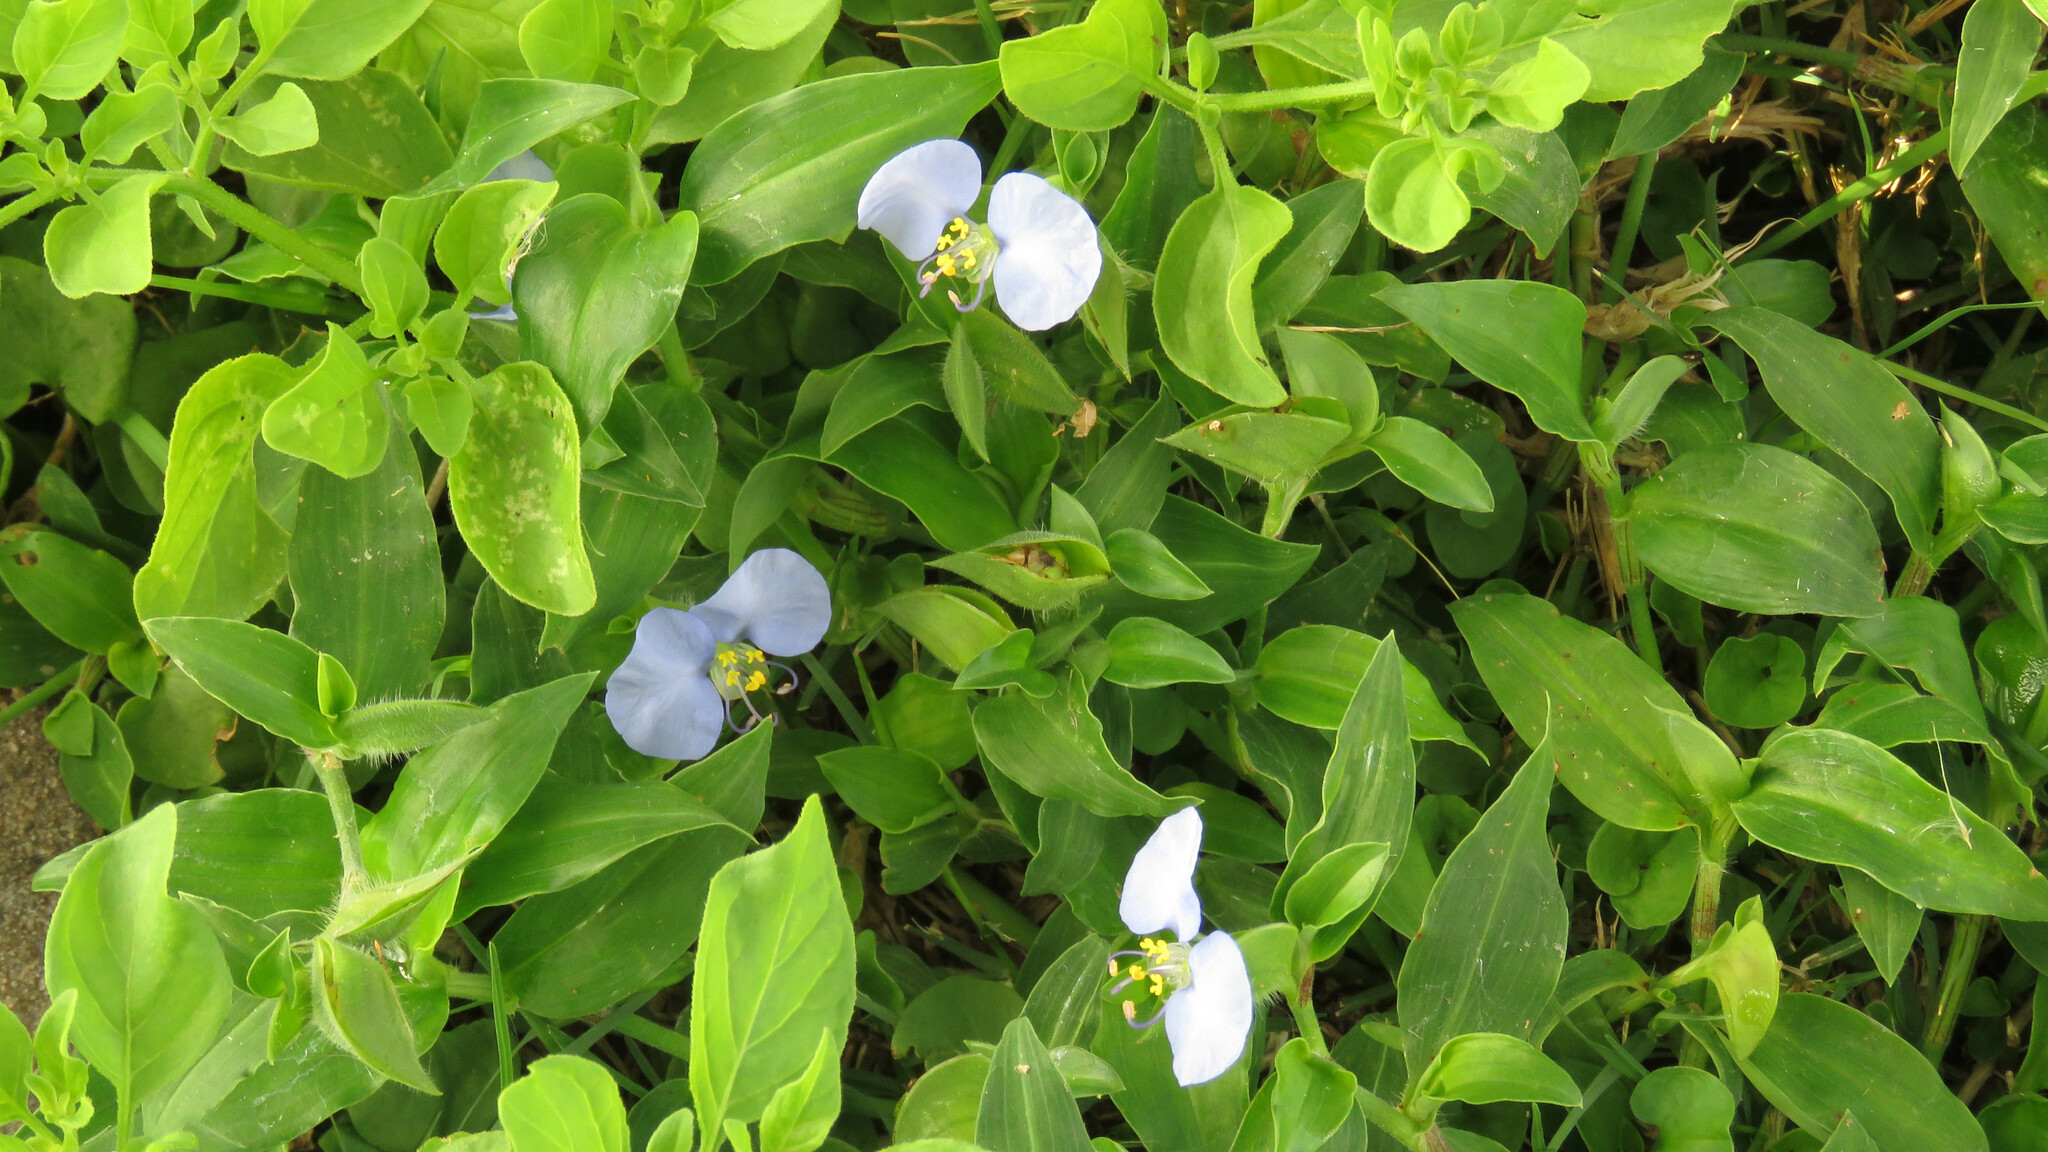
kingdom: Plantae
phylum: Tracheophyta
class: Liliopsida
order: Commelinales
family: Commelinaceae
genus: Commelina
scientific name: Commelina erecta
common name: Blousel blommetjie
